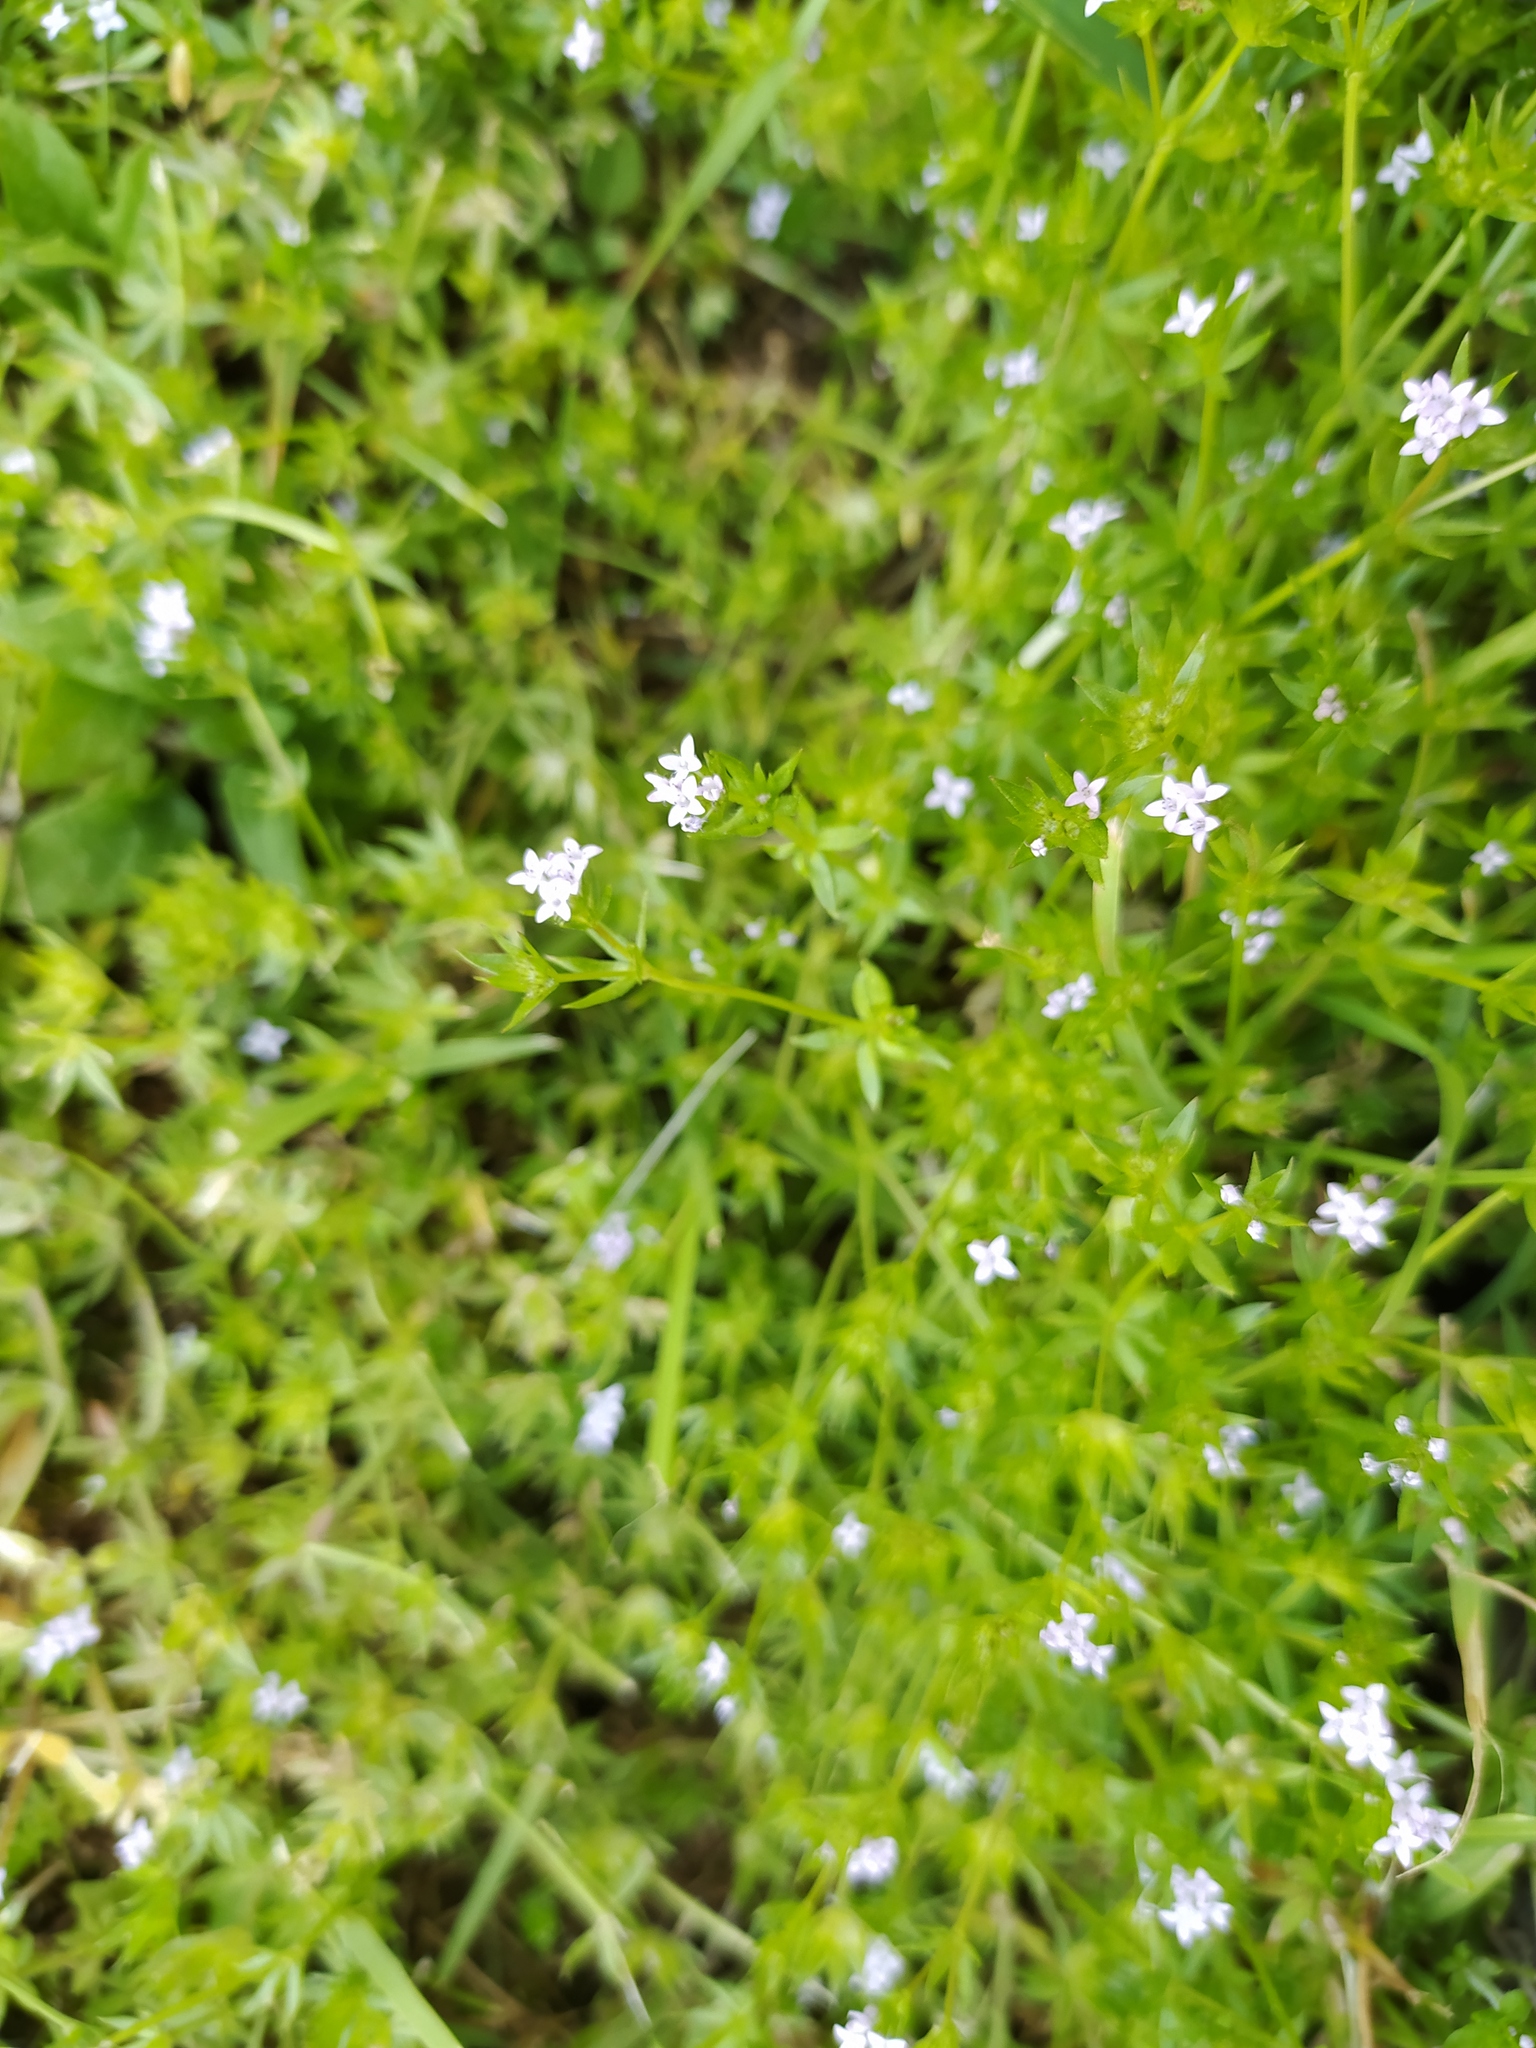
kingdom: Plantae
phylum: Tracheophyta
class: Magnoliopsida
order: Gentianales
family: Rubiaceae
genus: Sherardia
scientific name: Sherardia arvensis
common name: Field madder
